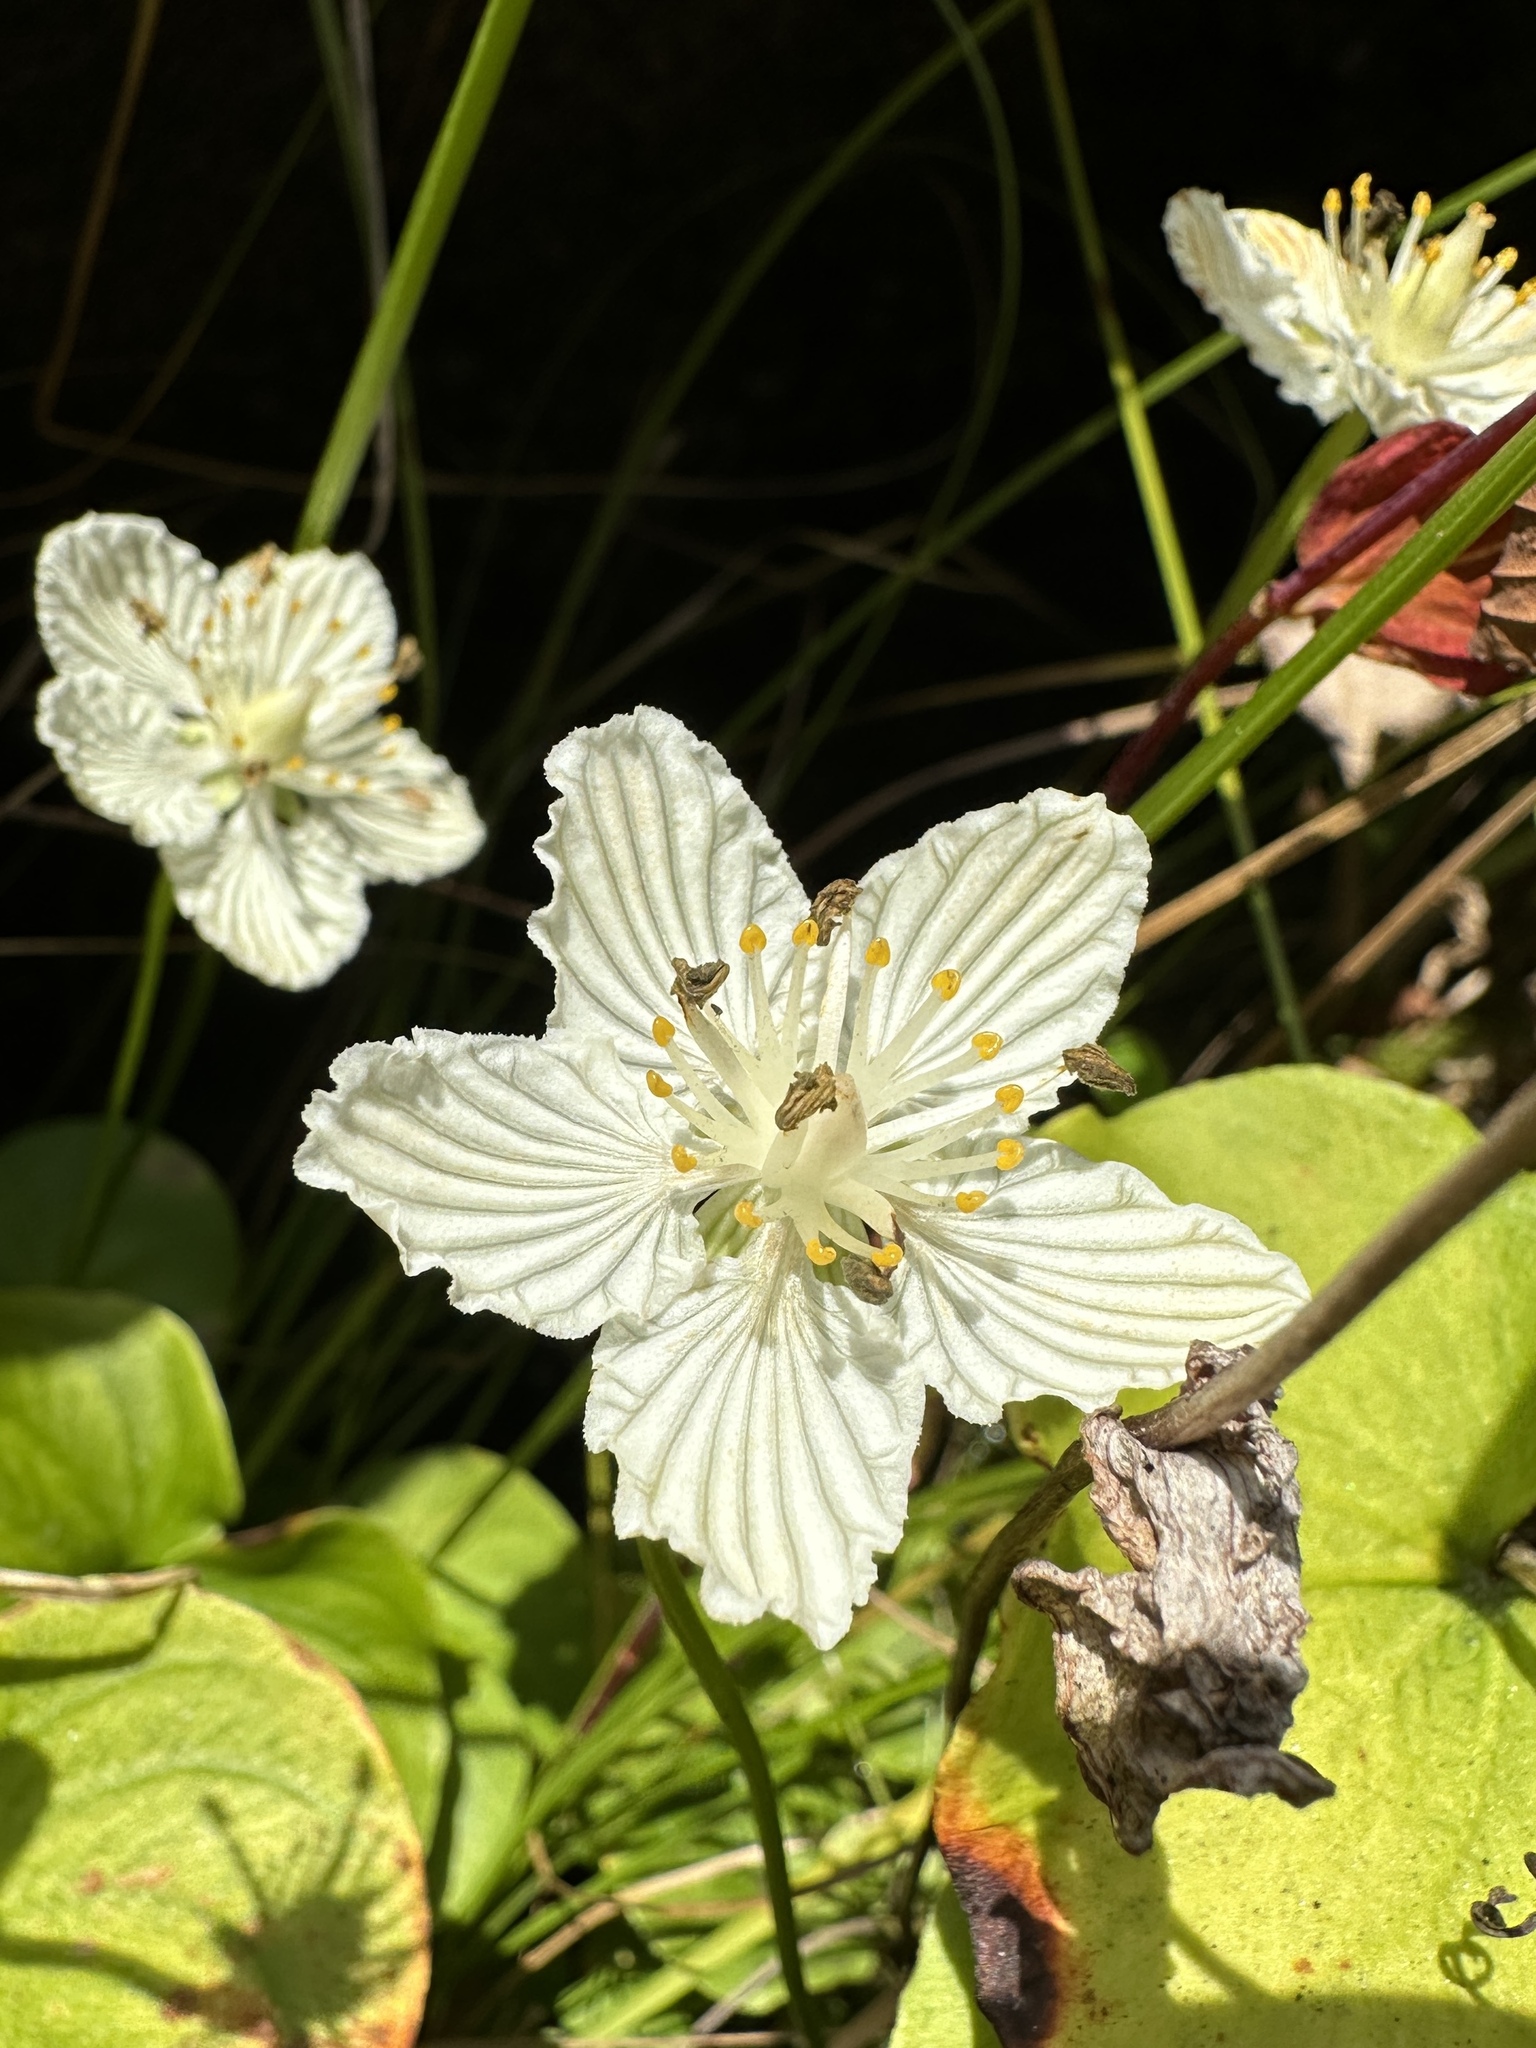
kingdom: Plantae
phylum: Tracheophyta
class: Magnoliopsida
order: Celastrales
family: Parnassiaceae
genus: Parnassia
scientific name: Parnassia asarifolia
